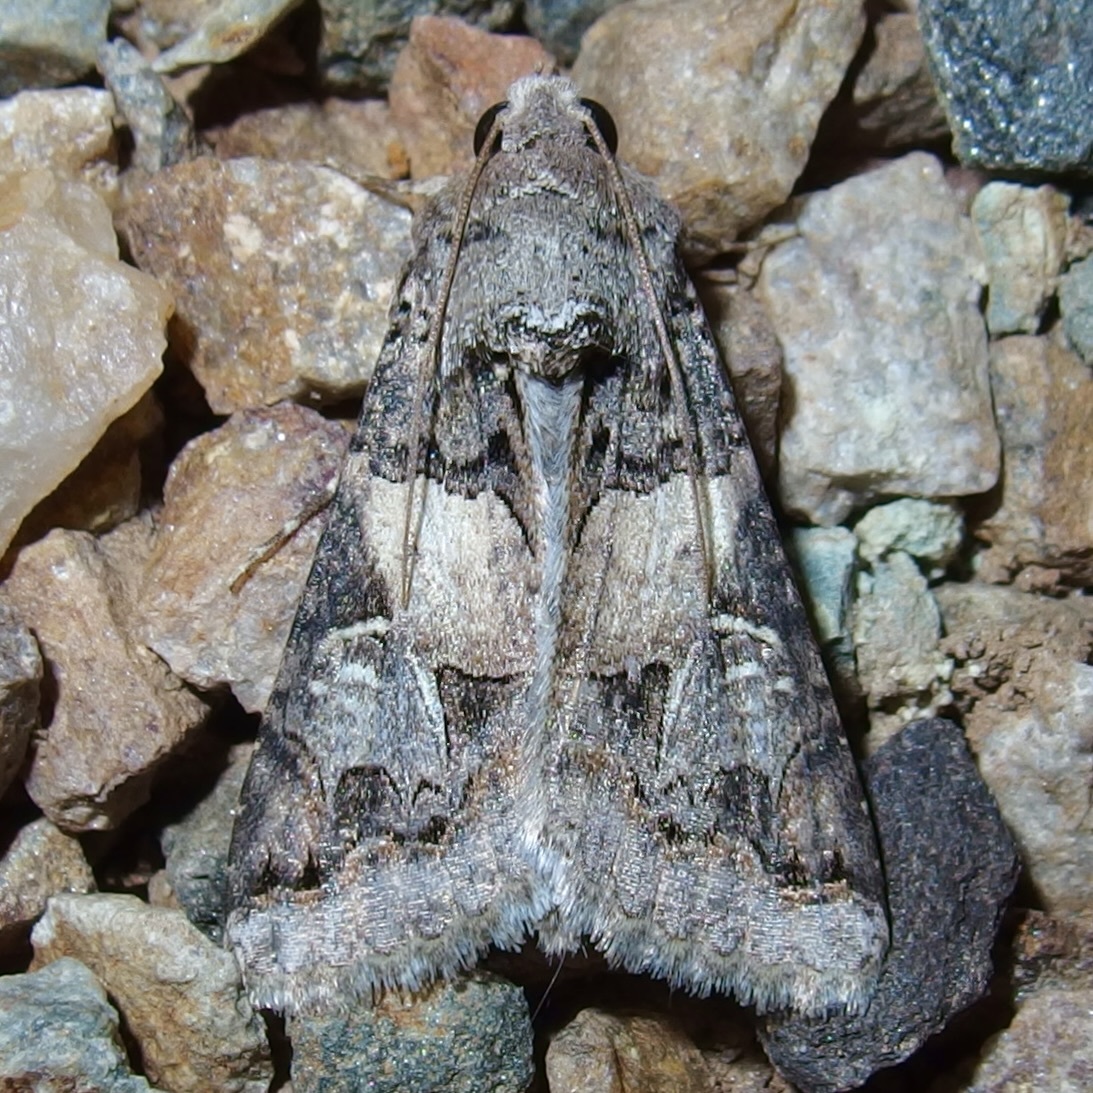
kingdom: Animalia
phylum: Arthropoda
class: Insecta
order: Lepidoptera
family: Erebidae
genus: Melipotis
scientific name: Melipotis novanda
